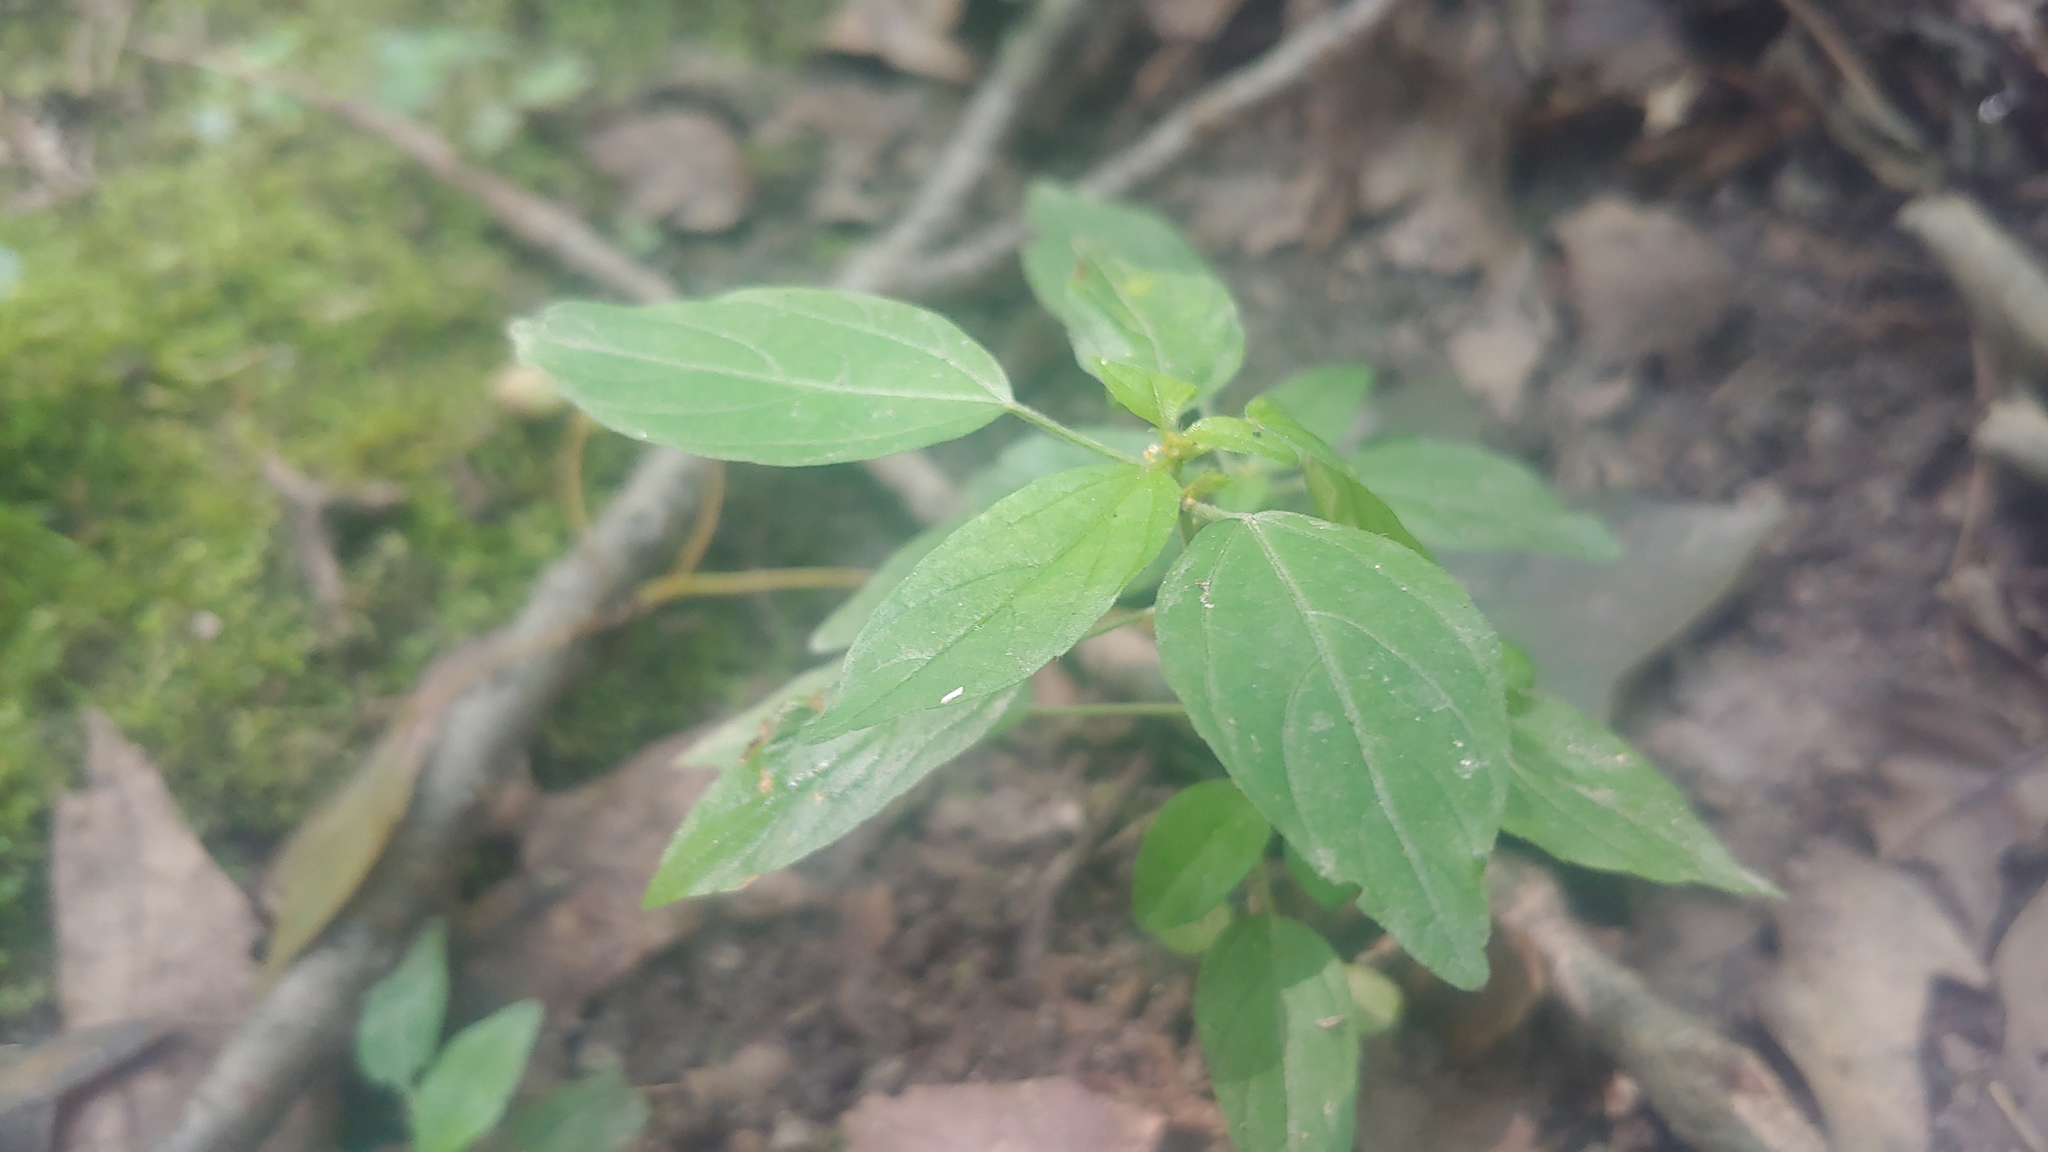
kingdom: Plantae
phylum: Tracheophyta
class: Magnoliopsida
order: Malpighiales
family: Euphorbiaceae
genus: Acalypha
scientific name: Acalypha virginica
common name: Virginia copperleaf
